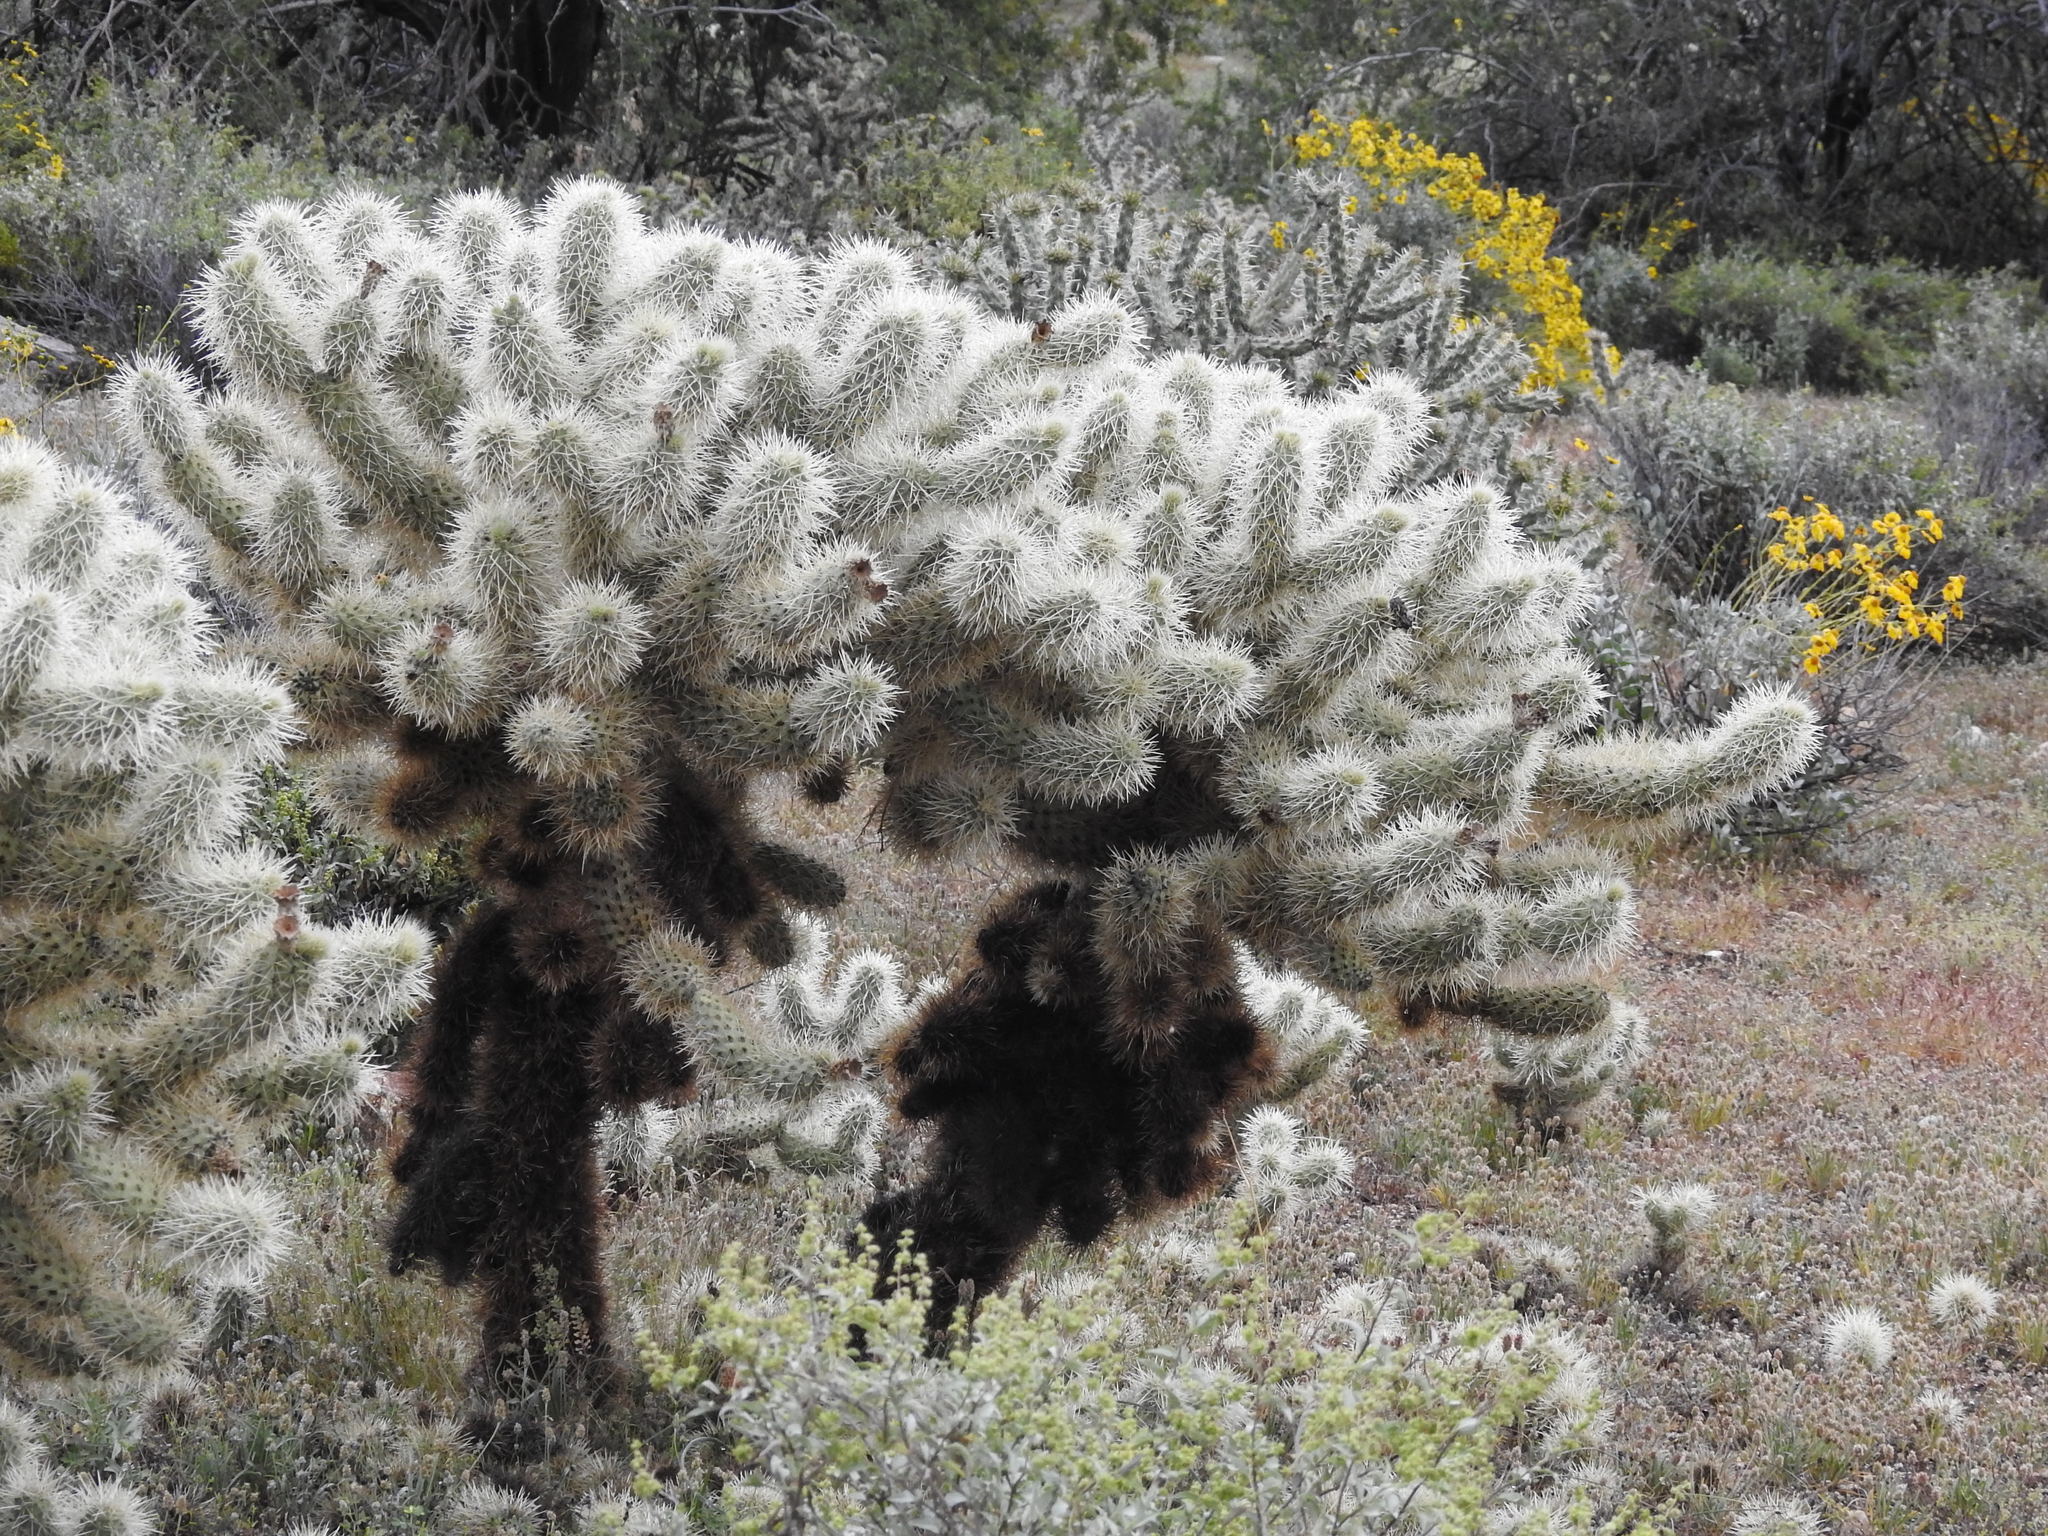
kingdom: Plantae
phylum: Tracheophyta
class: Magnoliopsida
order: Caryophyllales
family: Cactaceae
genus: Cylindropuntia
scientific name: Cylindropuntia fosbergii
